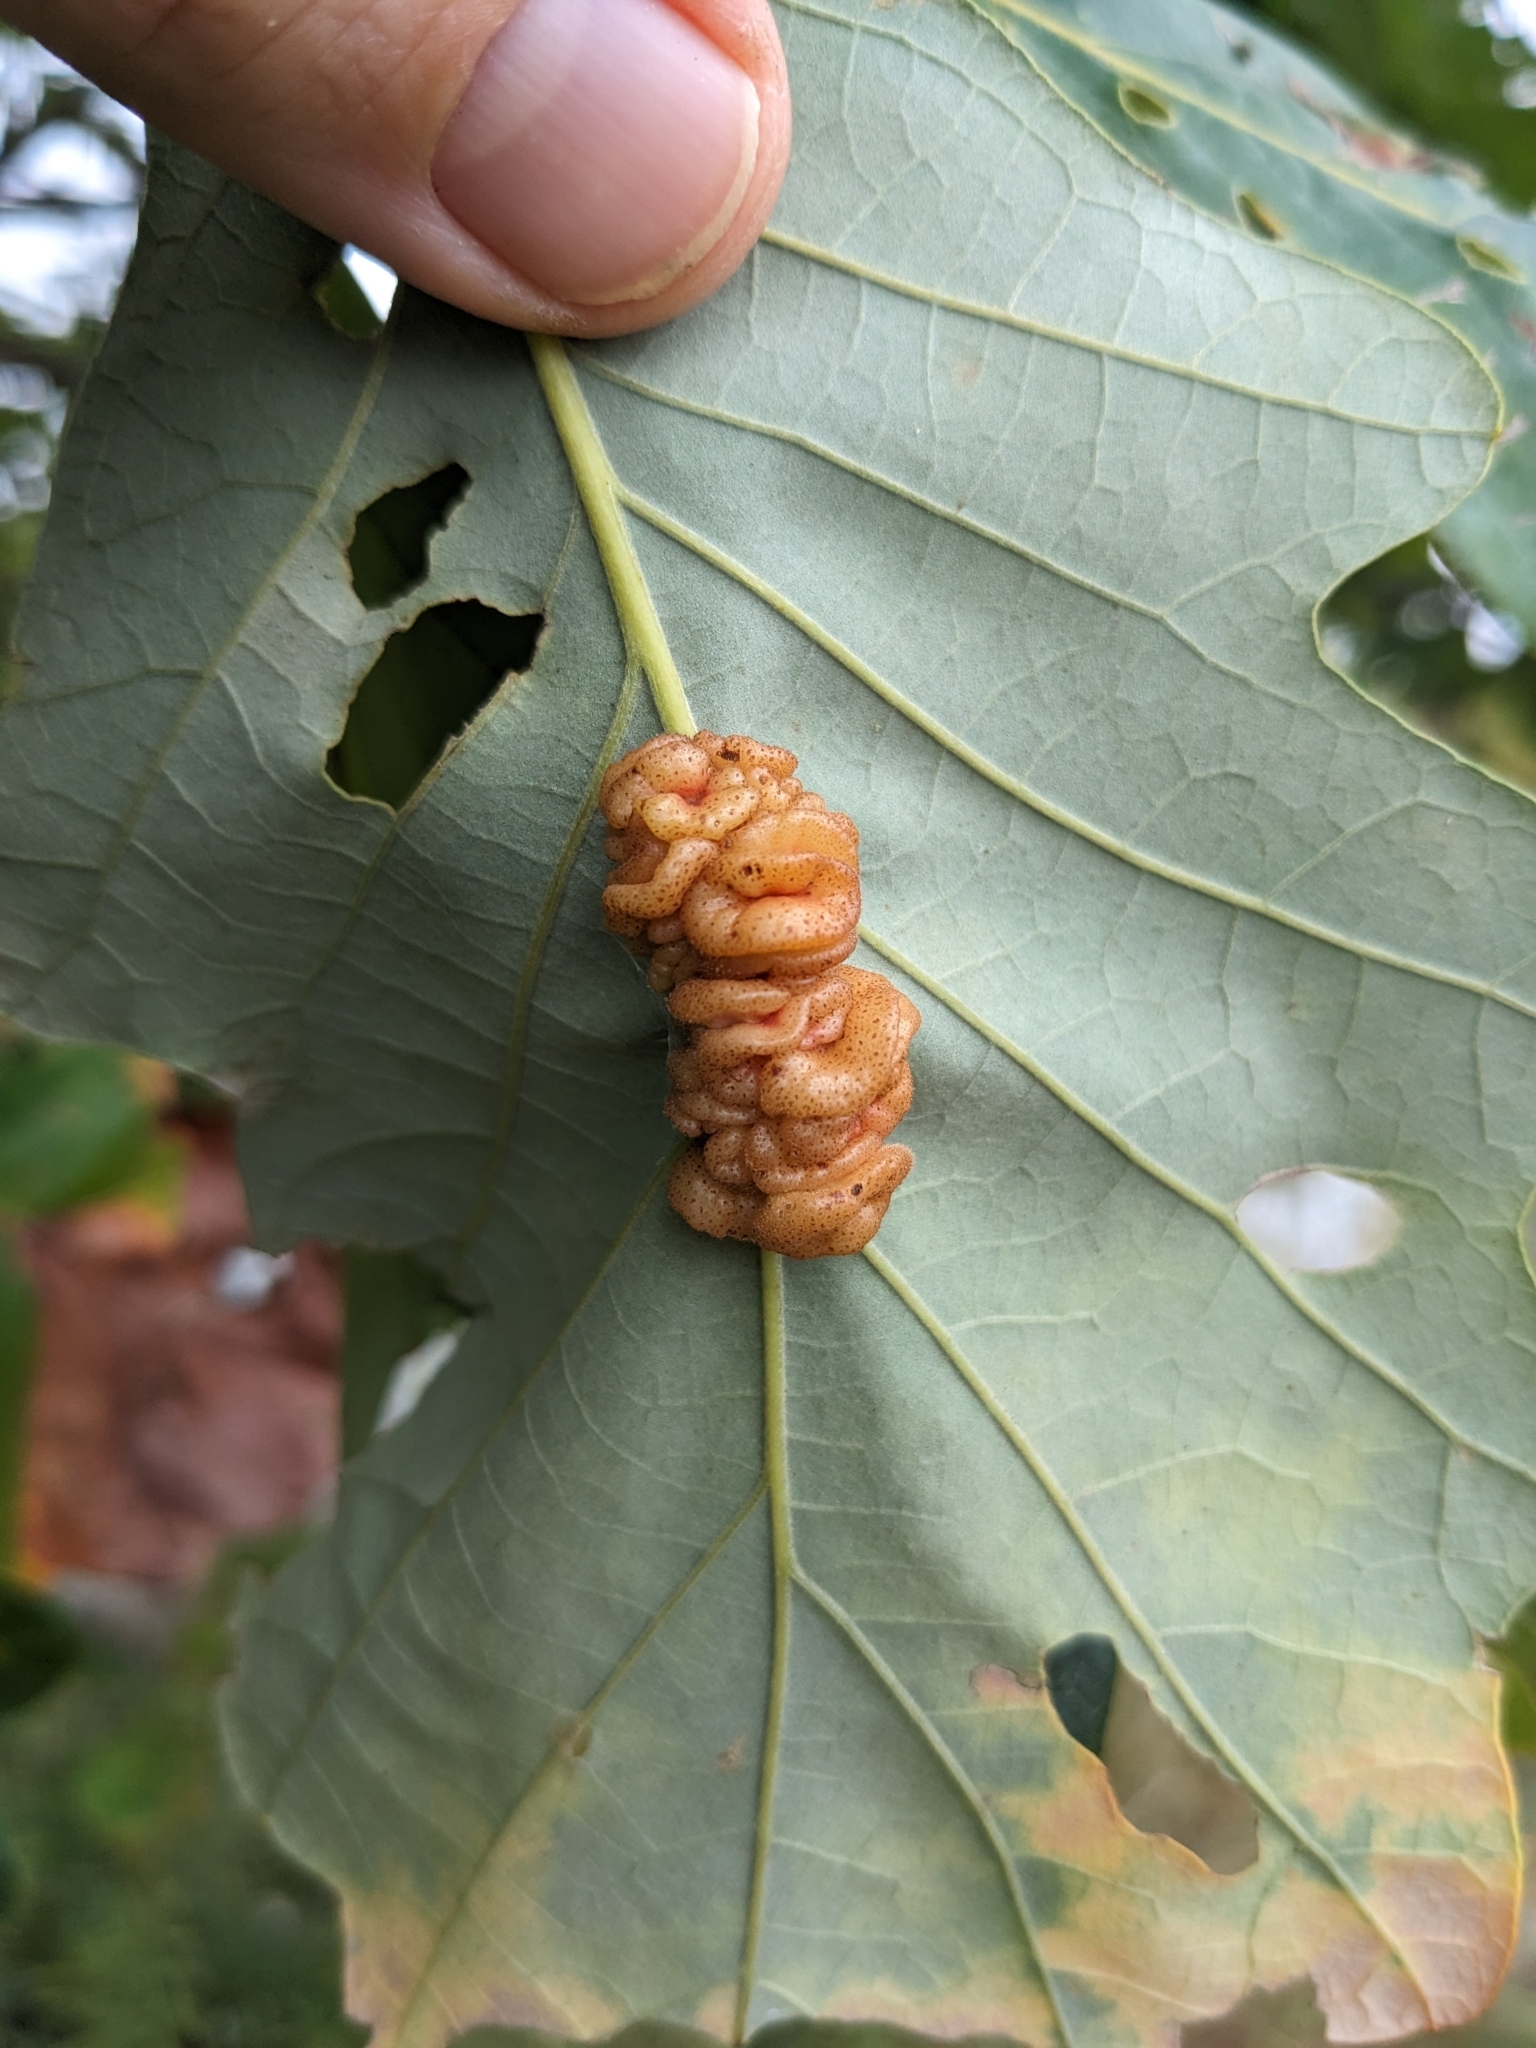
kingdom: Animalia
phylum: Arthropoda
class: Insecta
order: Hymenoptera
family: Cynipidae
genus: Andricus
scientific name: Andricus
